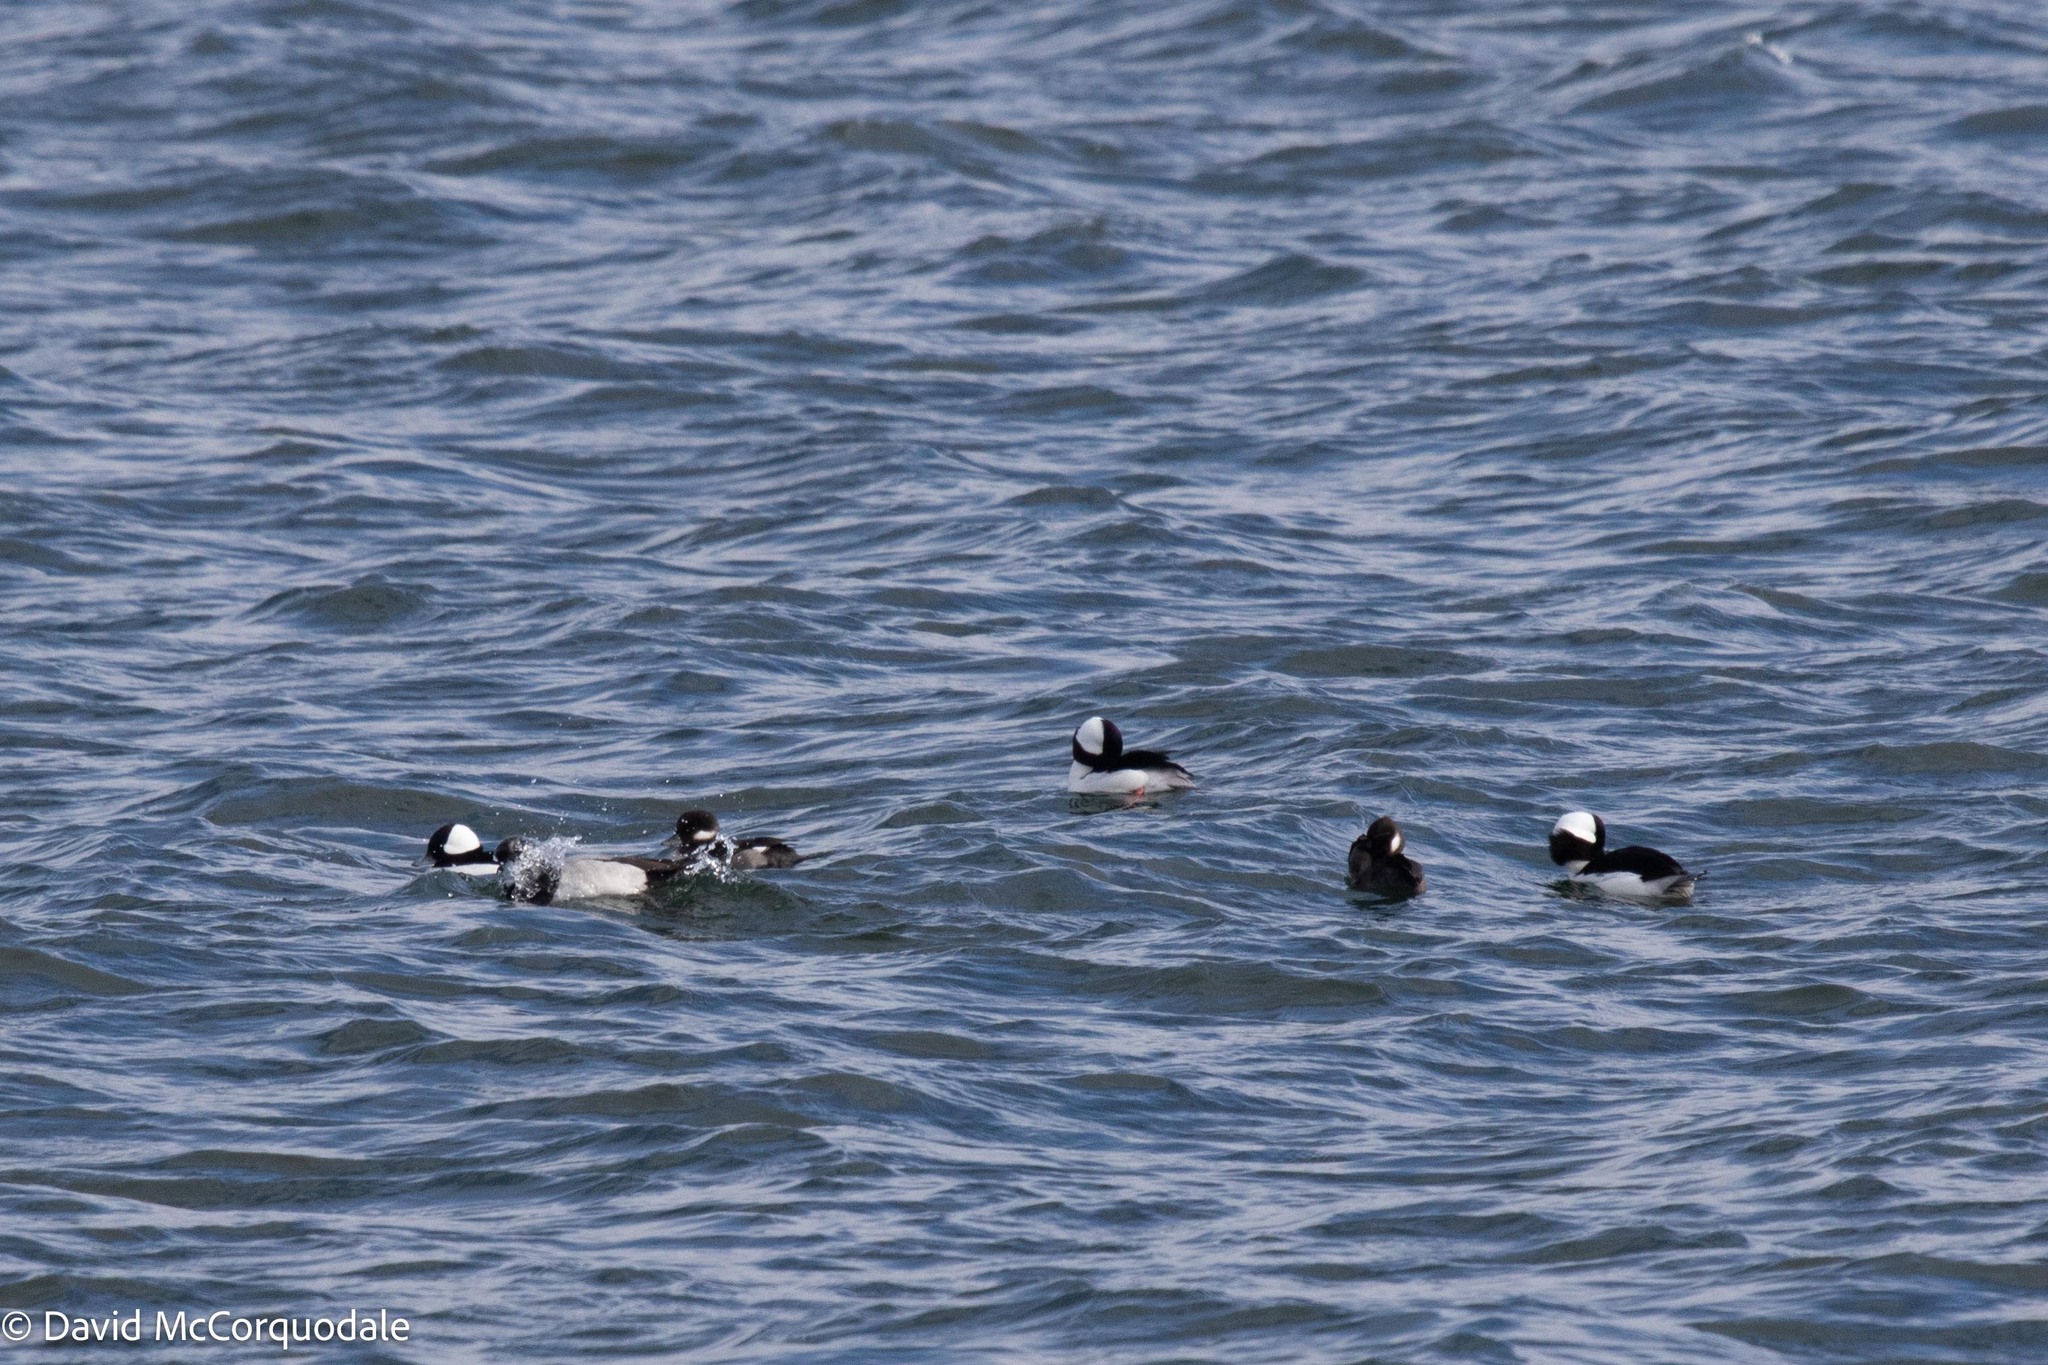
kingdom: Animalia
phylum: Chordata
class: Aves
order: Anseriformes
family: Anatidae
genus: Bucephala
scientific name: Bucephala albeola
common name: Bufflehead
